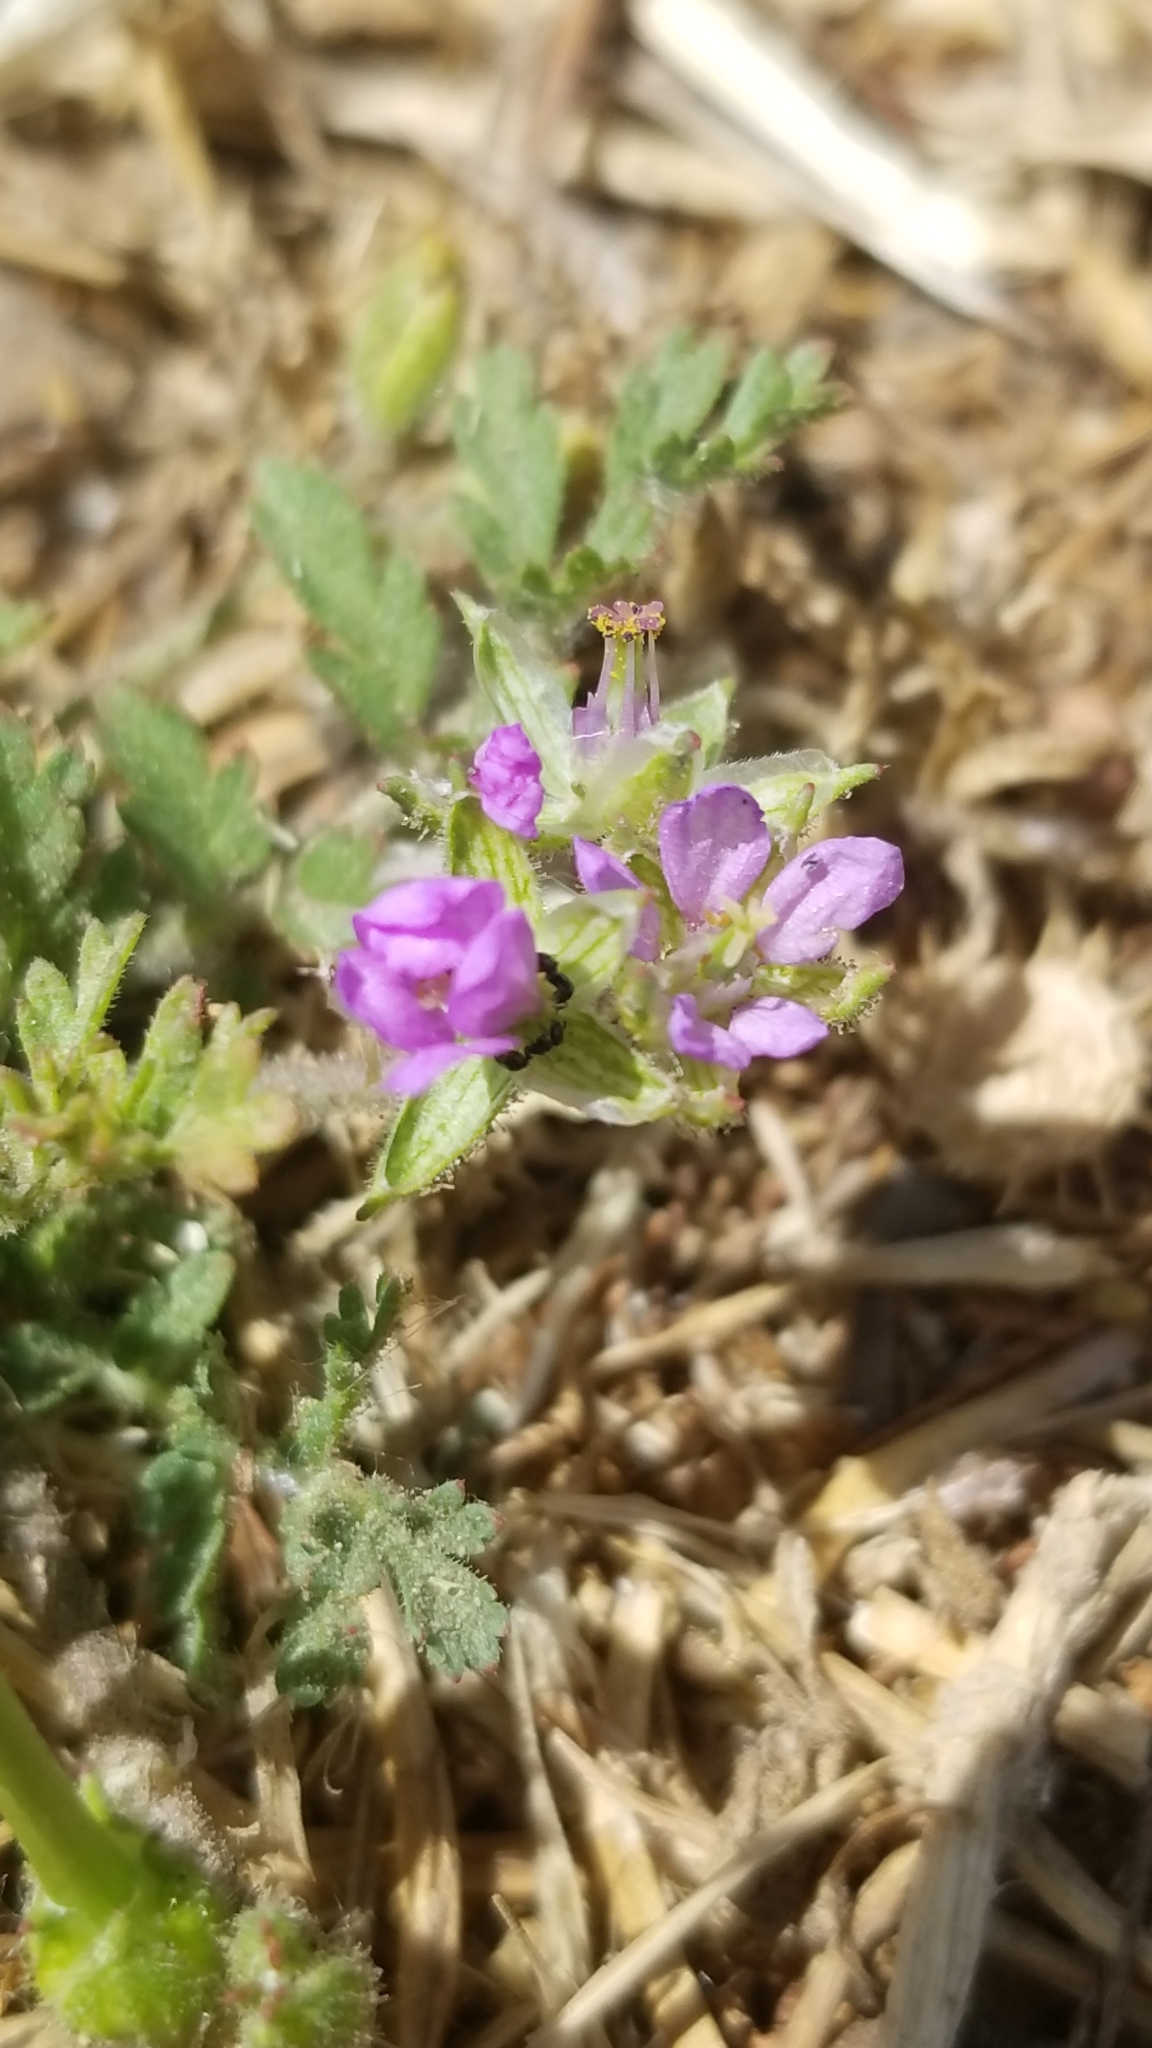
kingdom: Plantae
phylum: Tracheophyta
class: Magnoliopsida
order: Geraniales
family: Geraniaceae
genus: Erodium
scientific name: Erodium moschatum
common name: Musk stork's-bill
